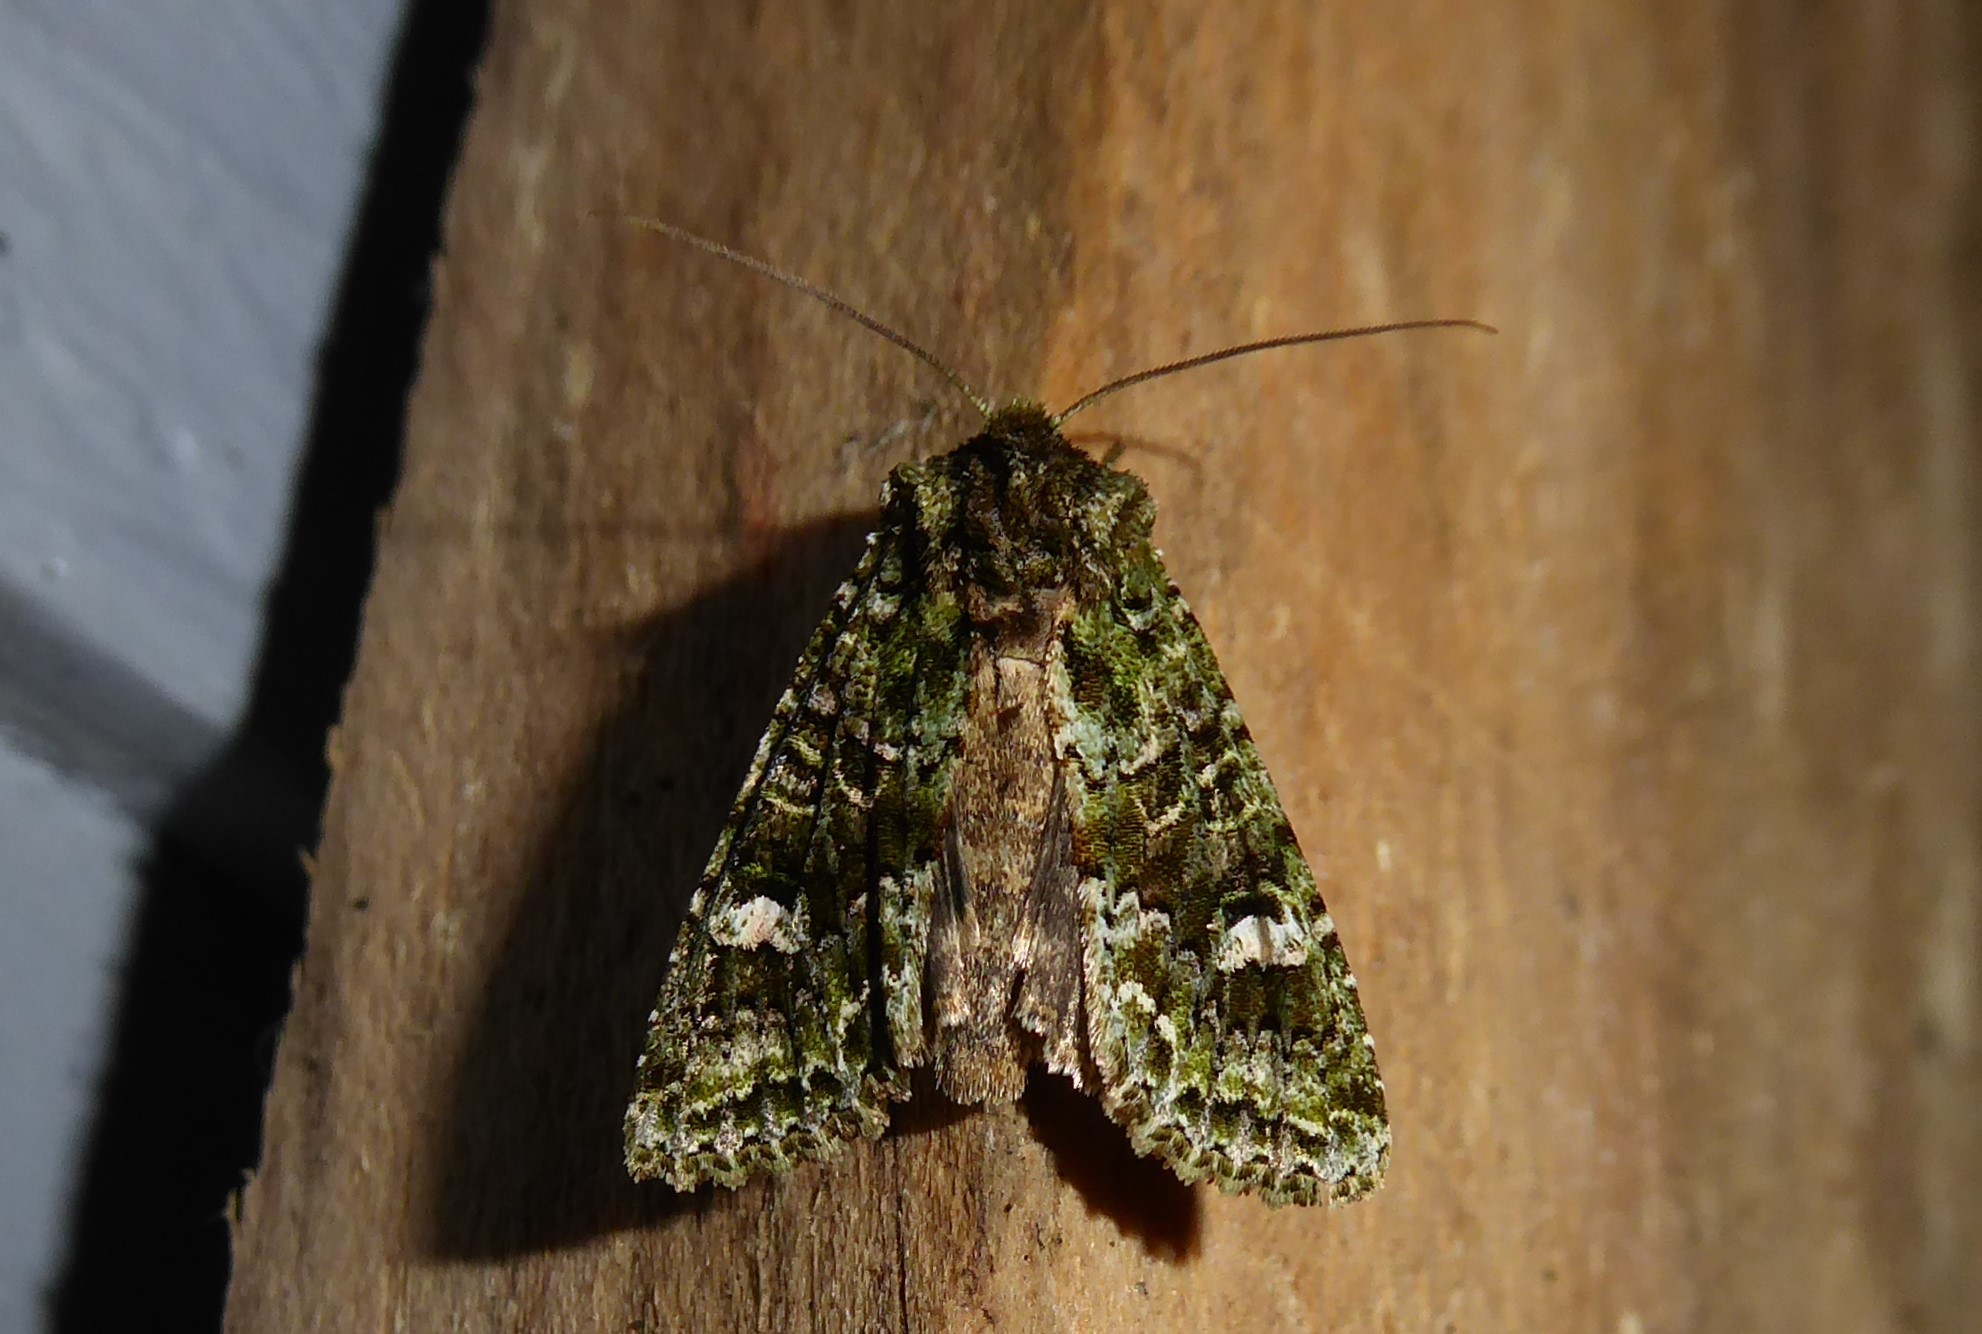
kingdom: Animalia
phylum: Arthropoda
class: Insecta
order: Lepidoptera
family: Noctuidae
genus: Ichneutica
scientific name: Ichneutica
